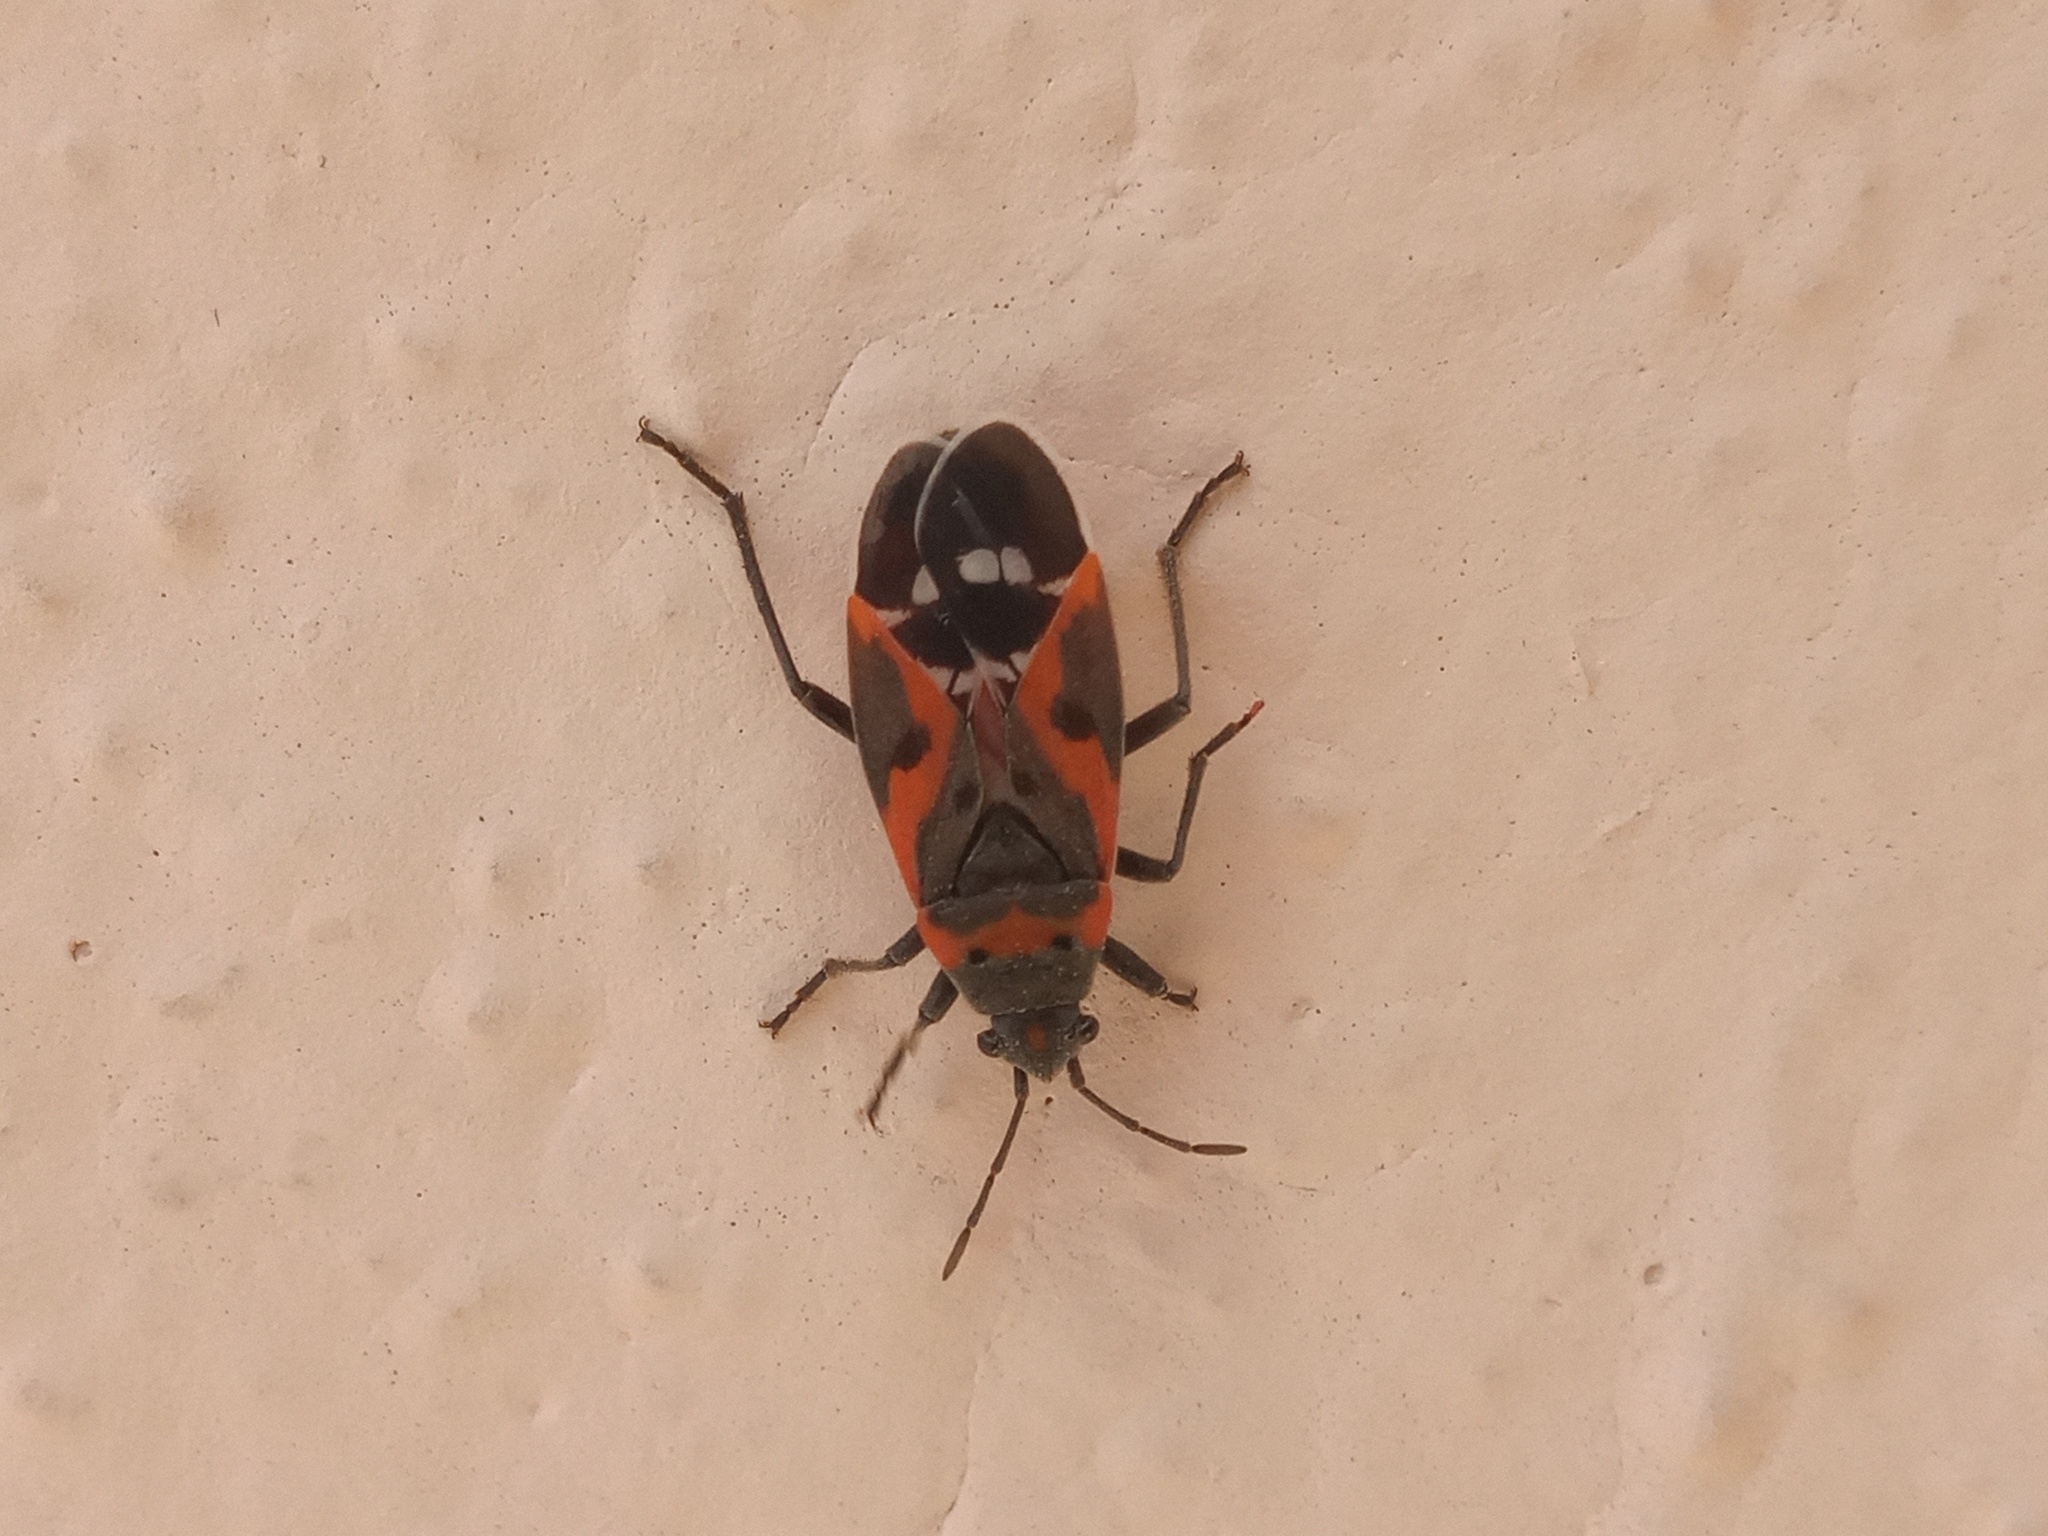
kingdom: Animalia
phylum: Arthropoda
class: Insecta
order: Hemiptera
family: Lygaeidae
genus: Lygaeus
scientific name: Lygaeus kalmii
